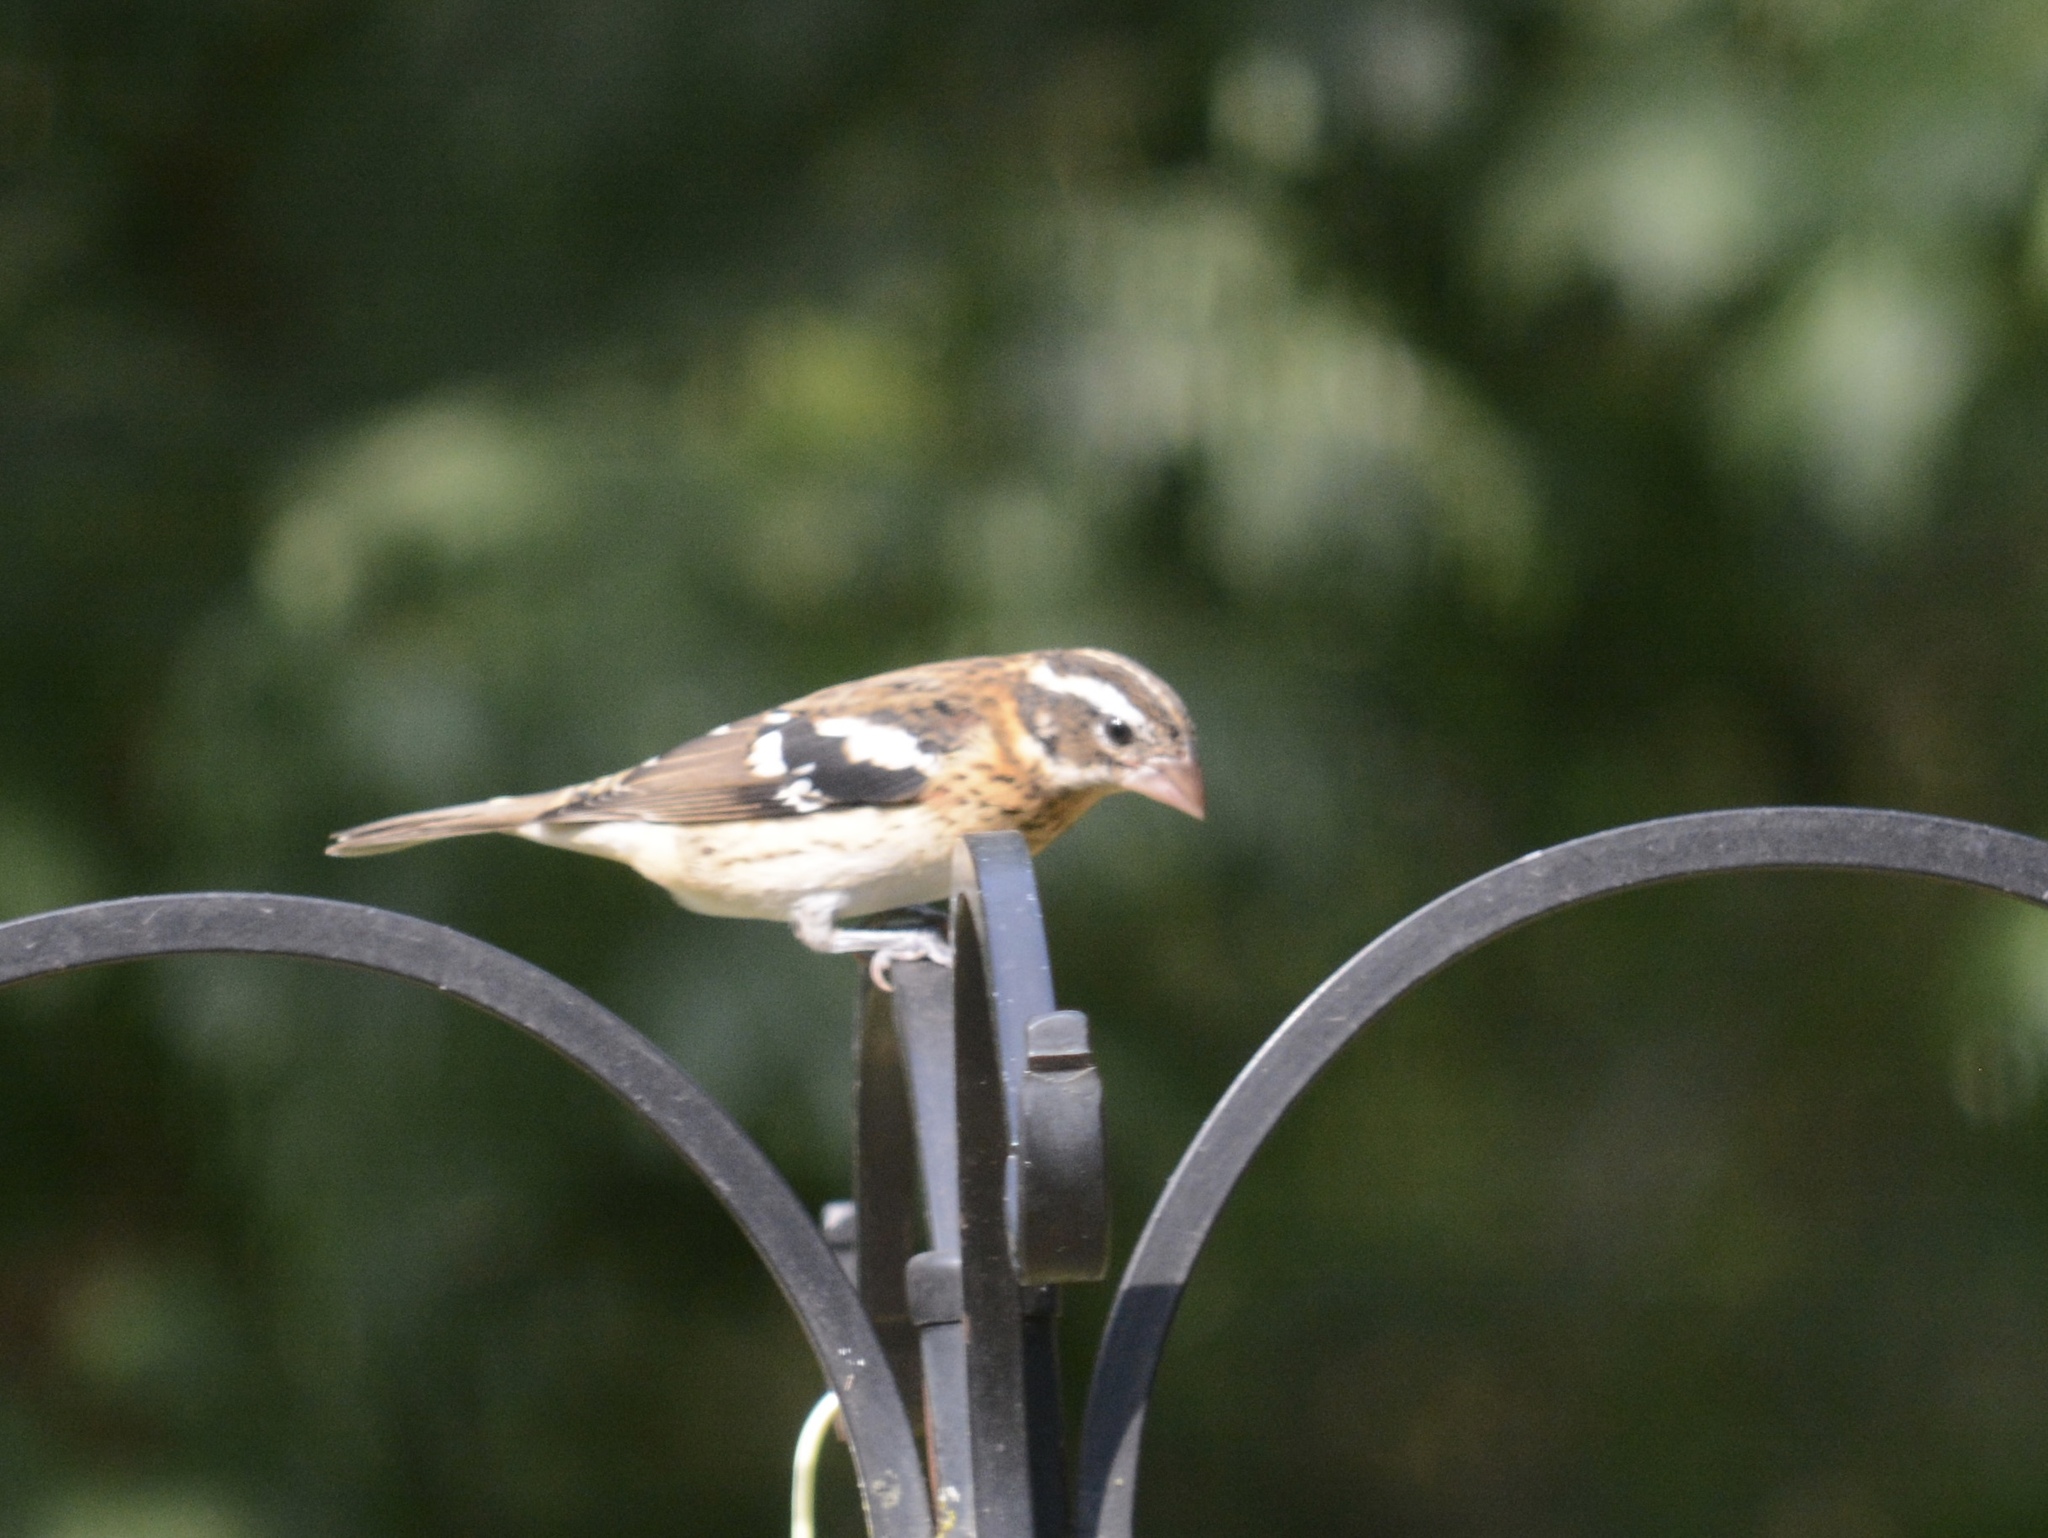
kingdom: Animalia
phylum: Chordata
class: Aves
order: Passeriformes
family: Cardinalidae
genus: Pheucticus
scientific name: Pheucticus ludovicianus
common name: Rose-breasted grosbeak
